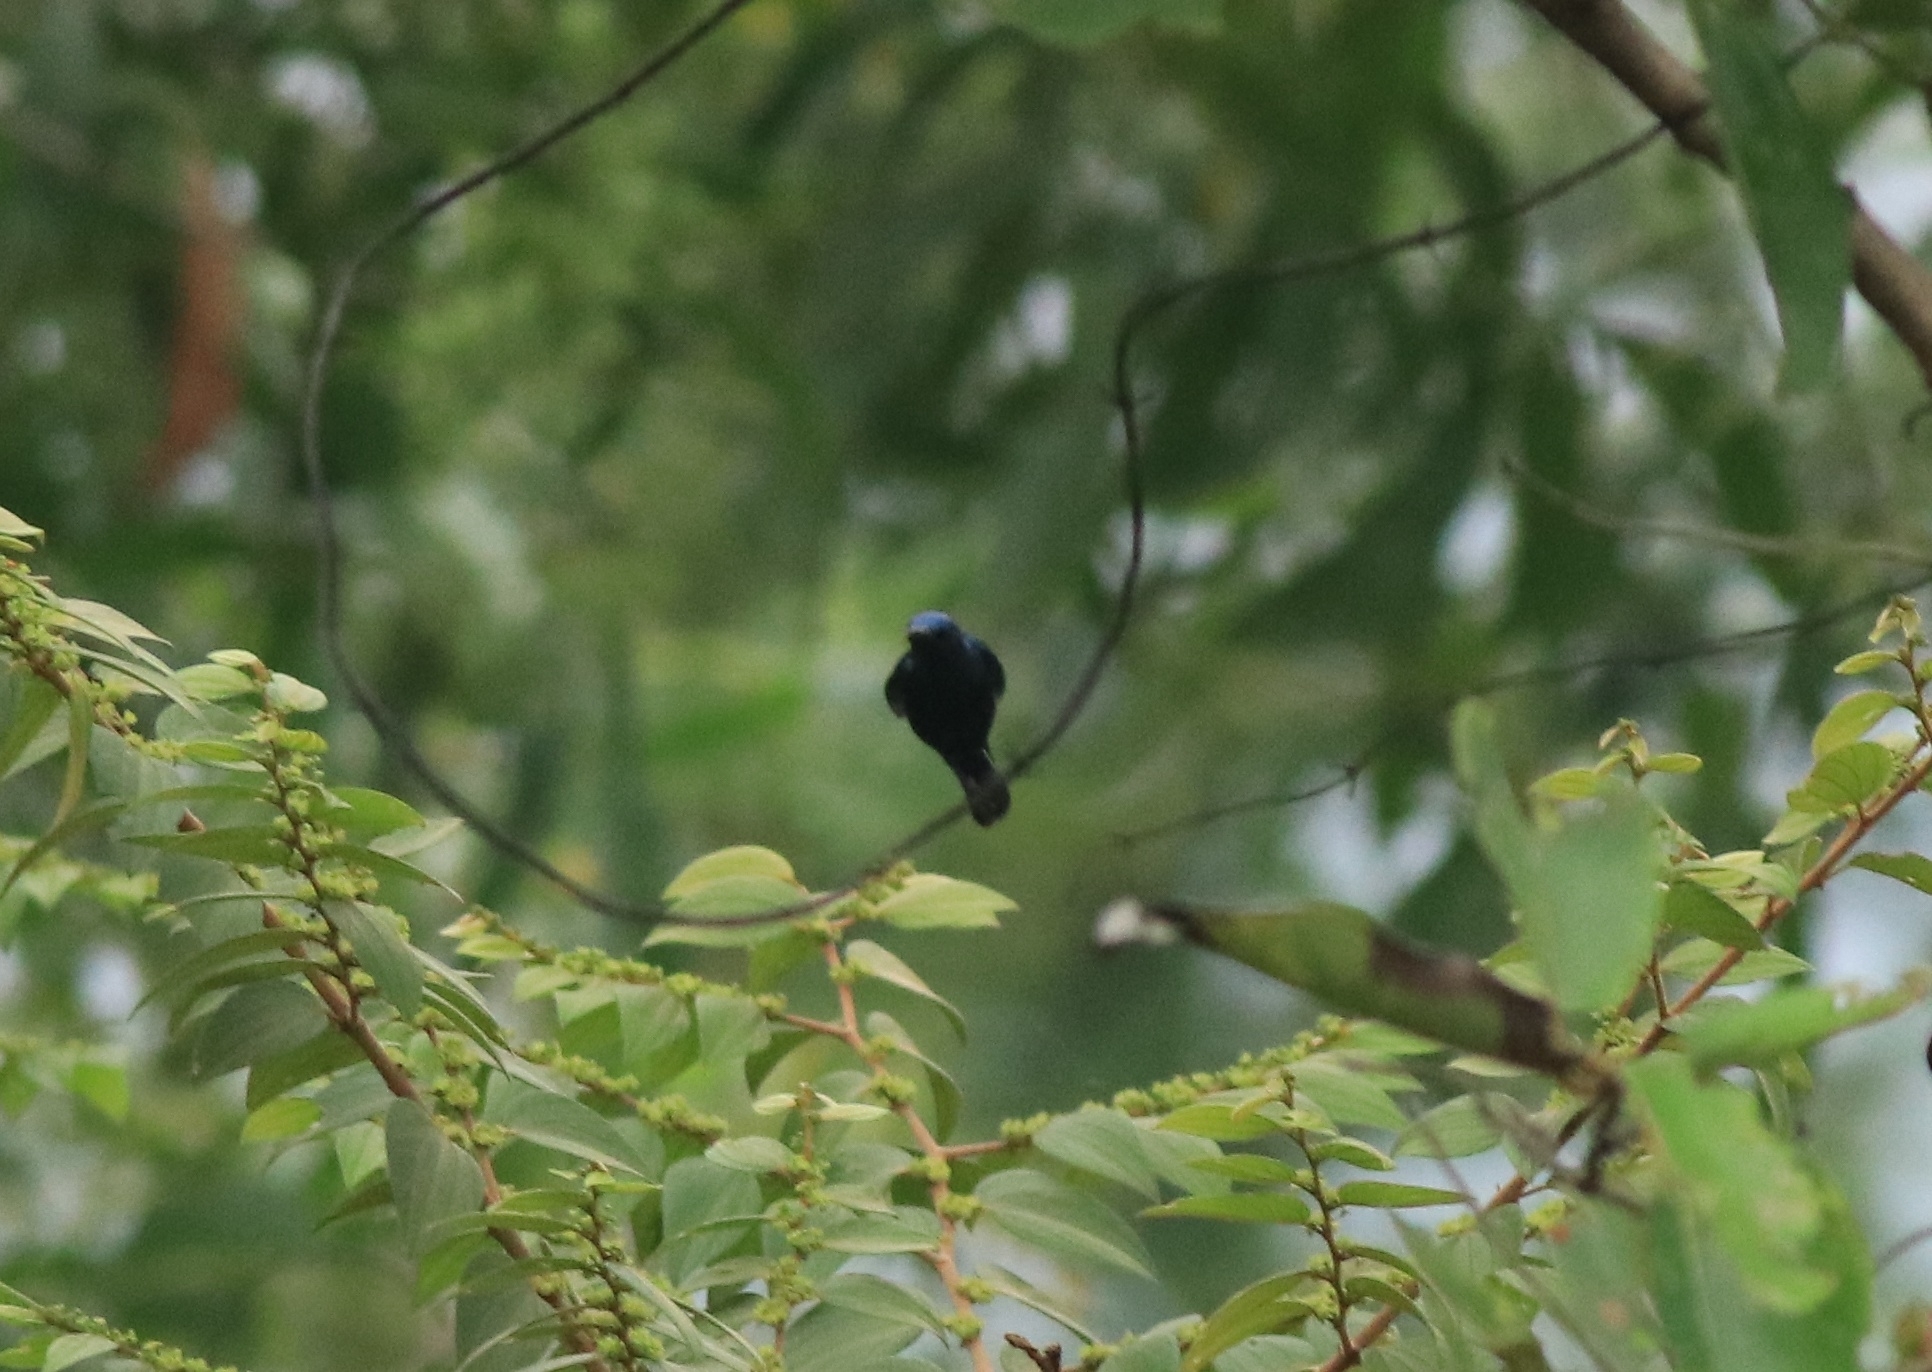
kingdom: Animalia
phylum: Chordata
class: Aves
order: Passeriformes
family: Nectariniidae
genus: Cinnyris
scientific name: Cinnyris asiaticus
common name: Purple sunbird
